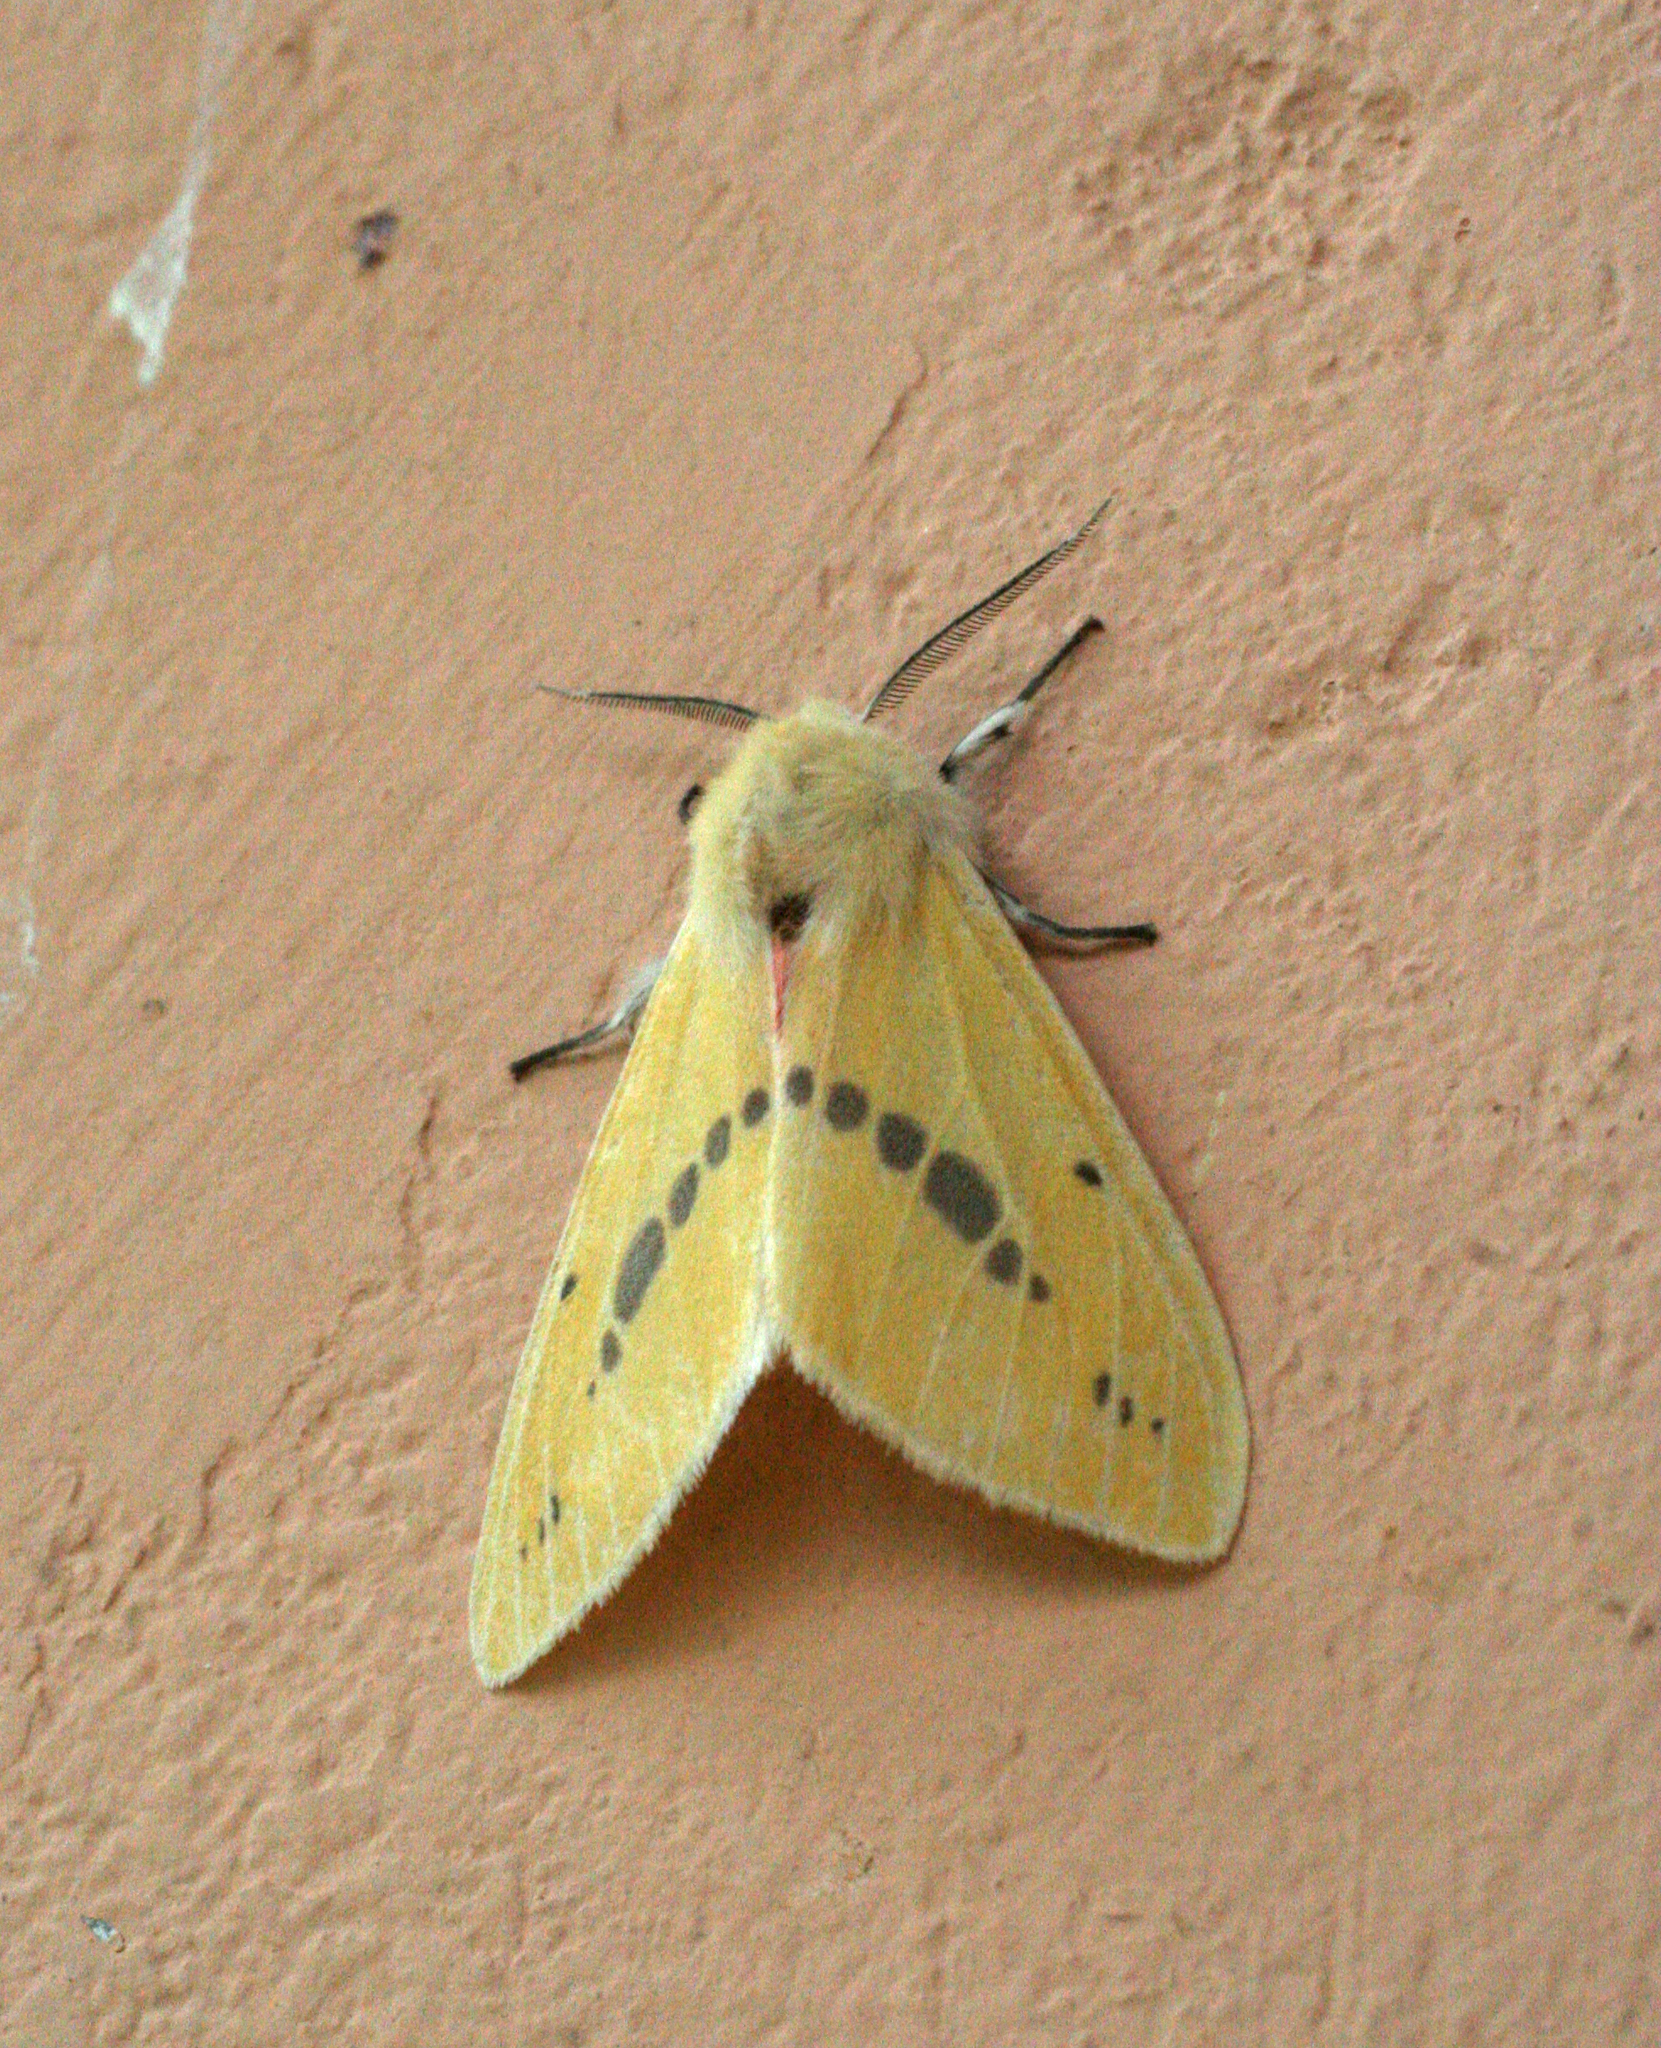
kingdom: Animalia
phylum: Arthropoda
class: Insecta
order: Lepidoptera
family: Erebidae
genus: Lemyra
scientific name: Lemyra jankowskii
